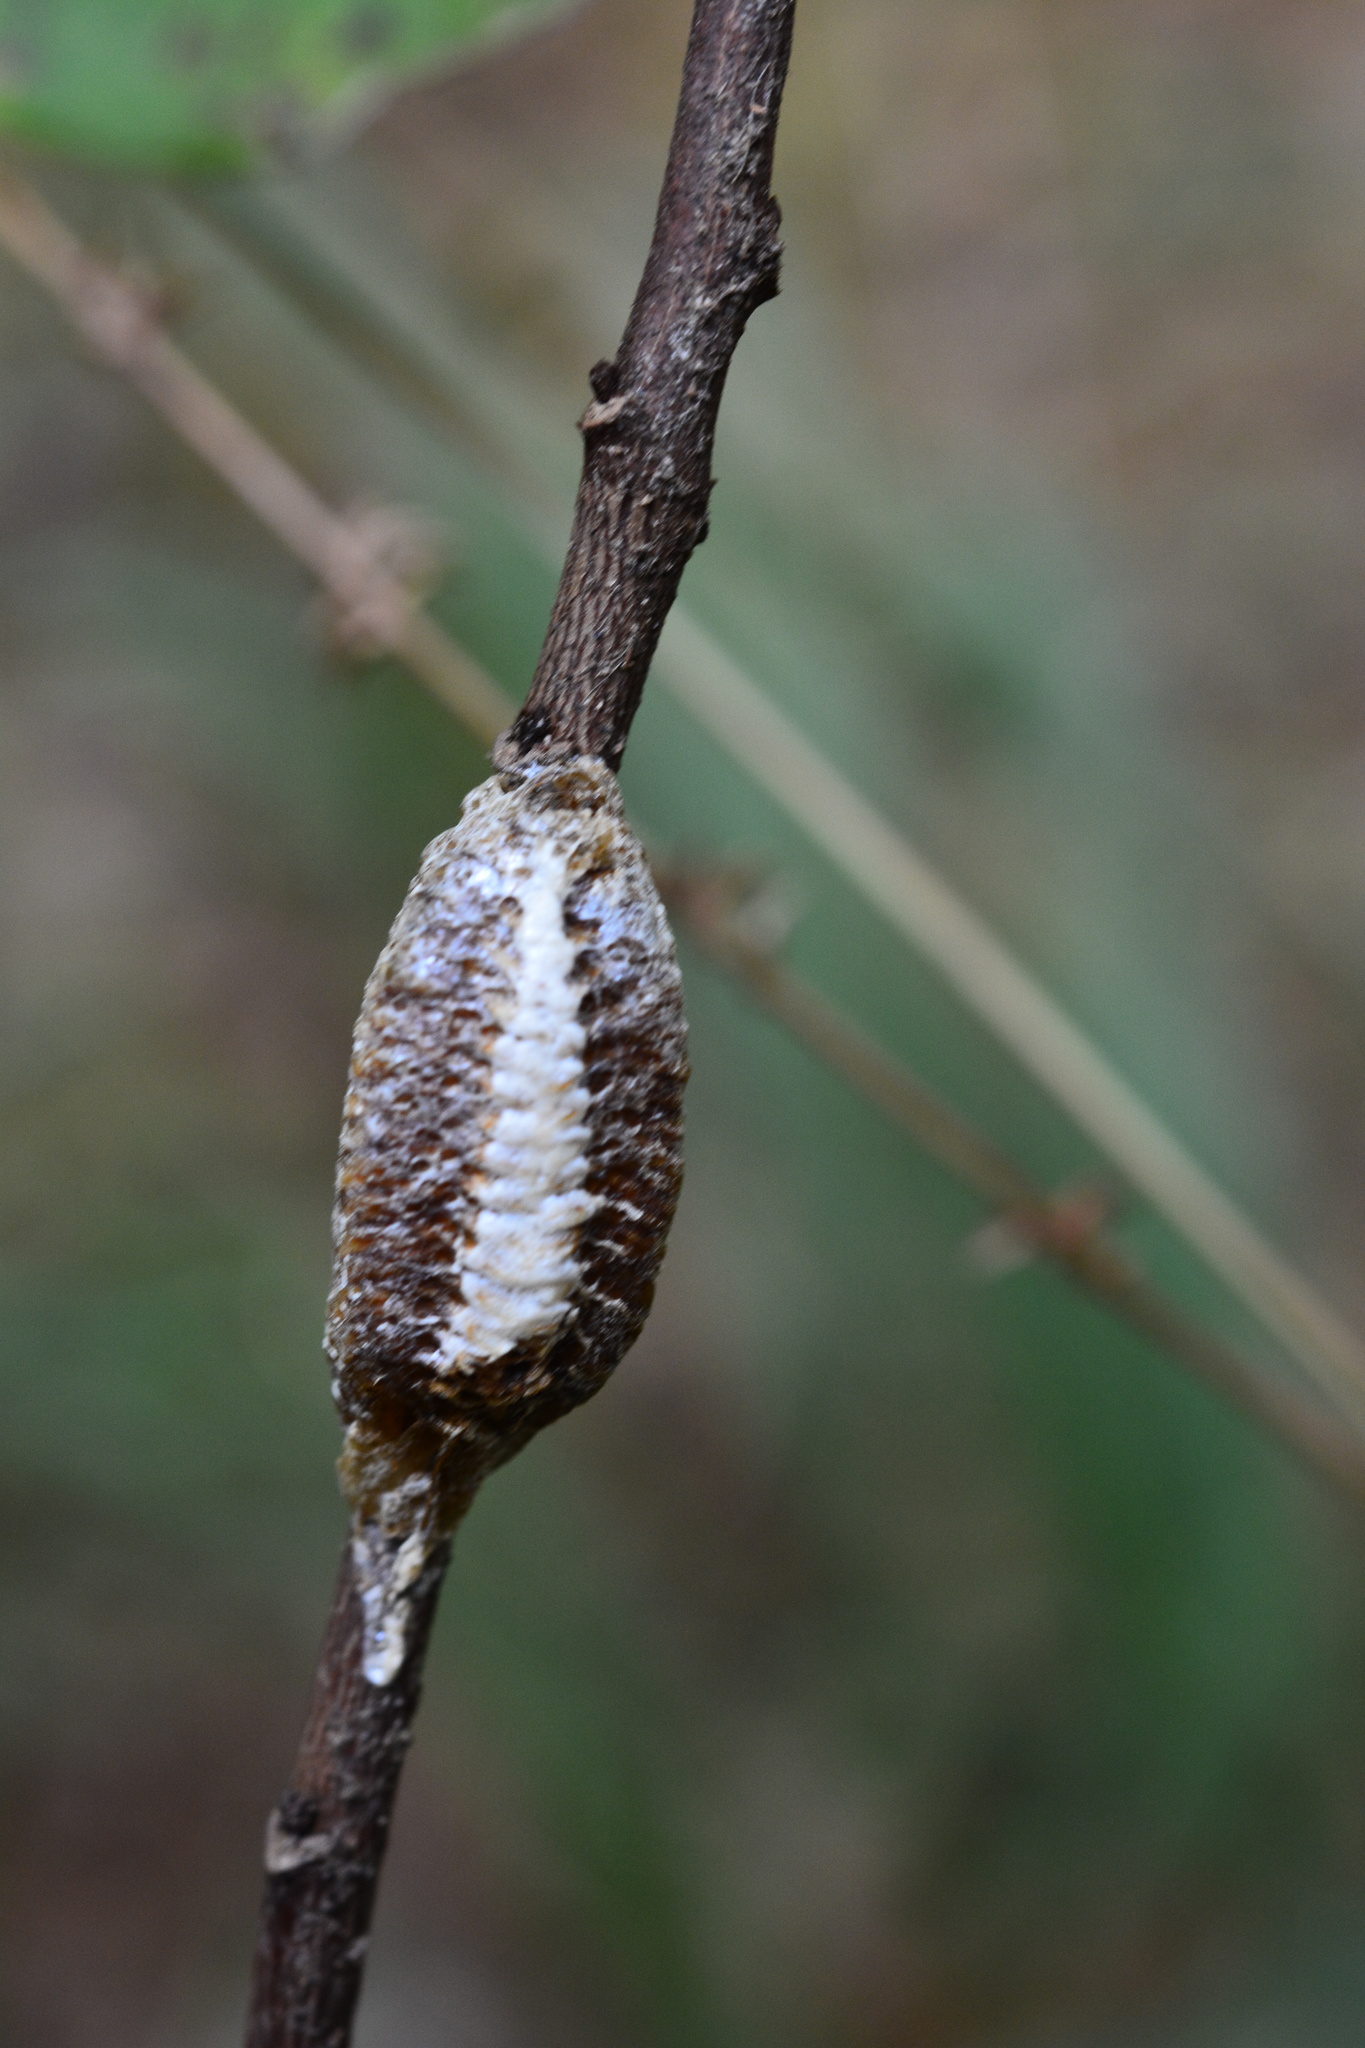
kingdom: Animalia
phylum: Arthropoda
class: Insecta
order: Mantodea
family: Mantidae
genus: Stagmomantis
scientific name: Stagmomantis carolina
